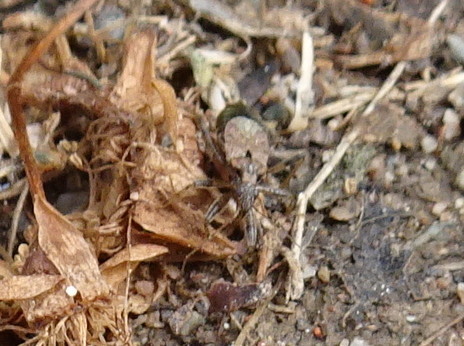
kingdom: Animalia
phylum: Arthropoda
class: Insecta
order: Hemiptera
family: Nabidae
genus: Himacerus
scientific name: Himacerus mirmicoides
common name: Ant damsel bug
